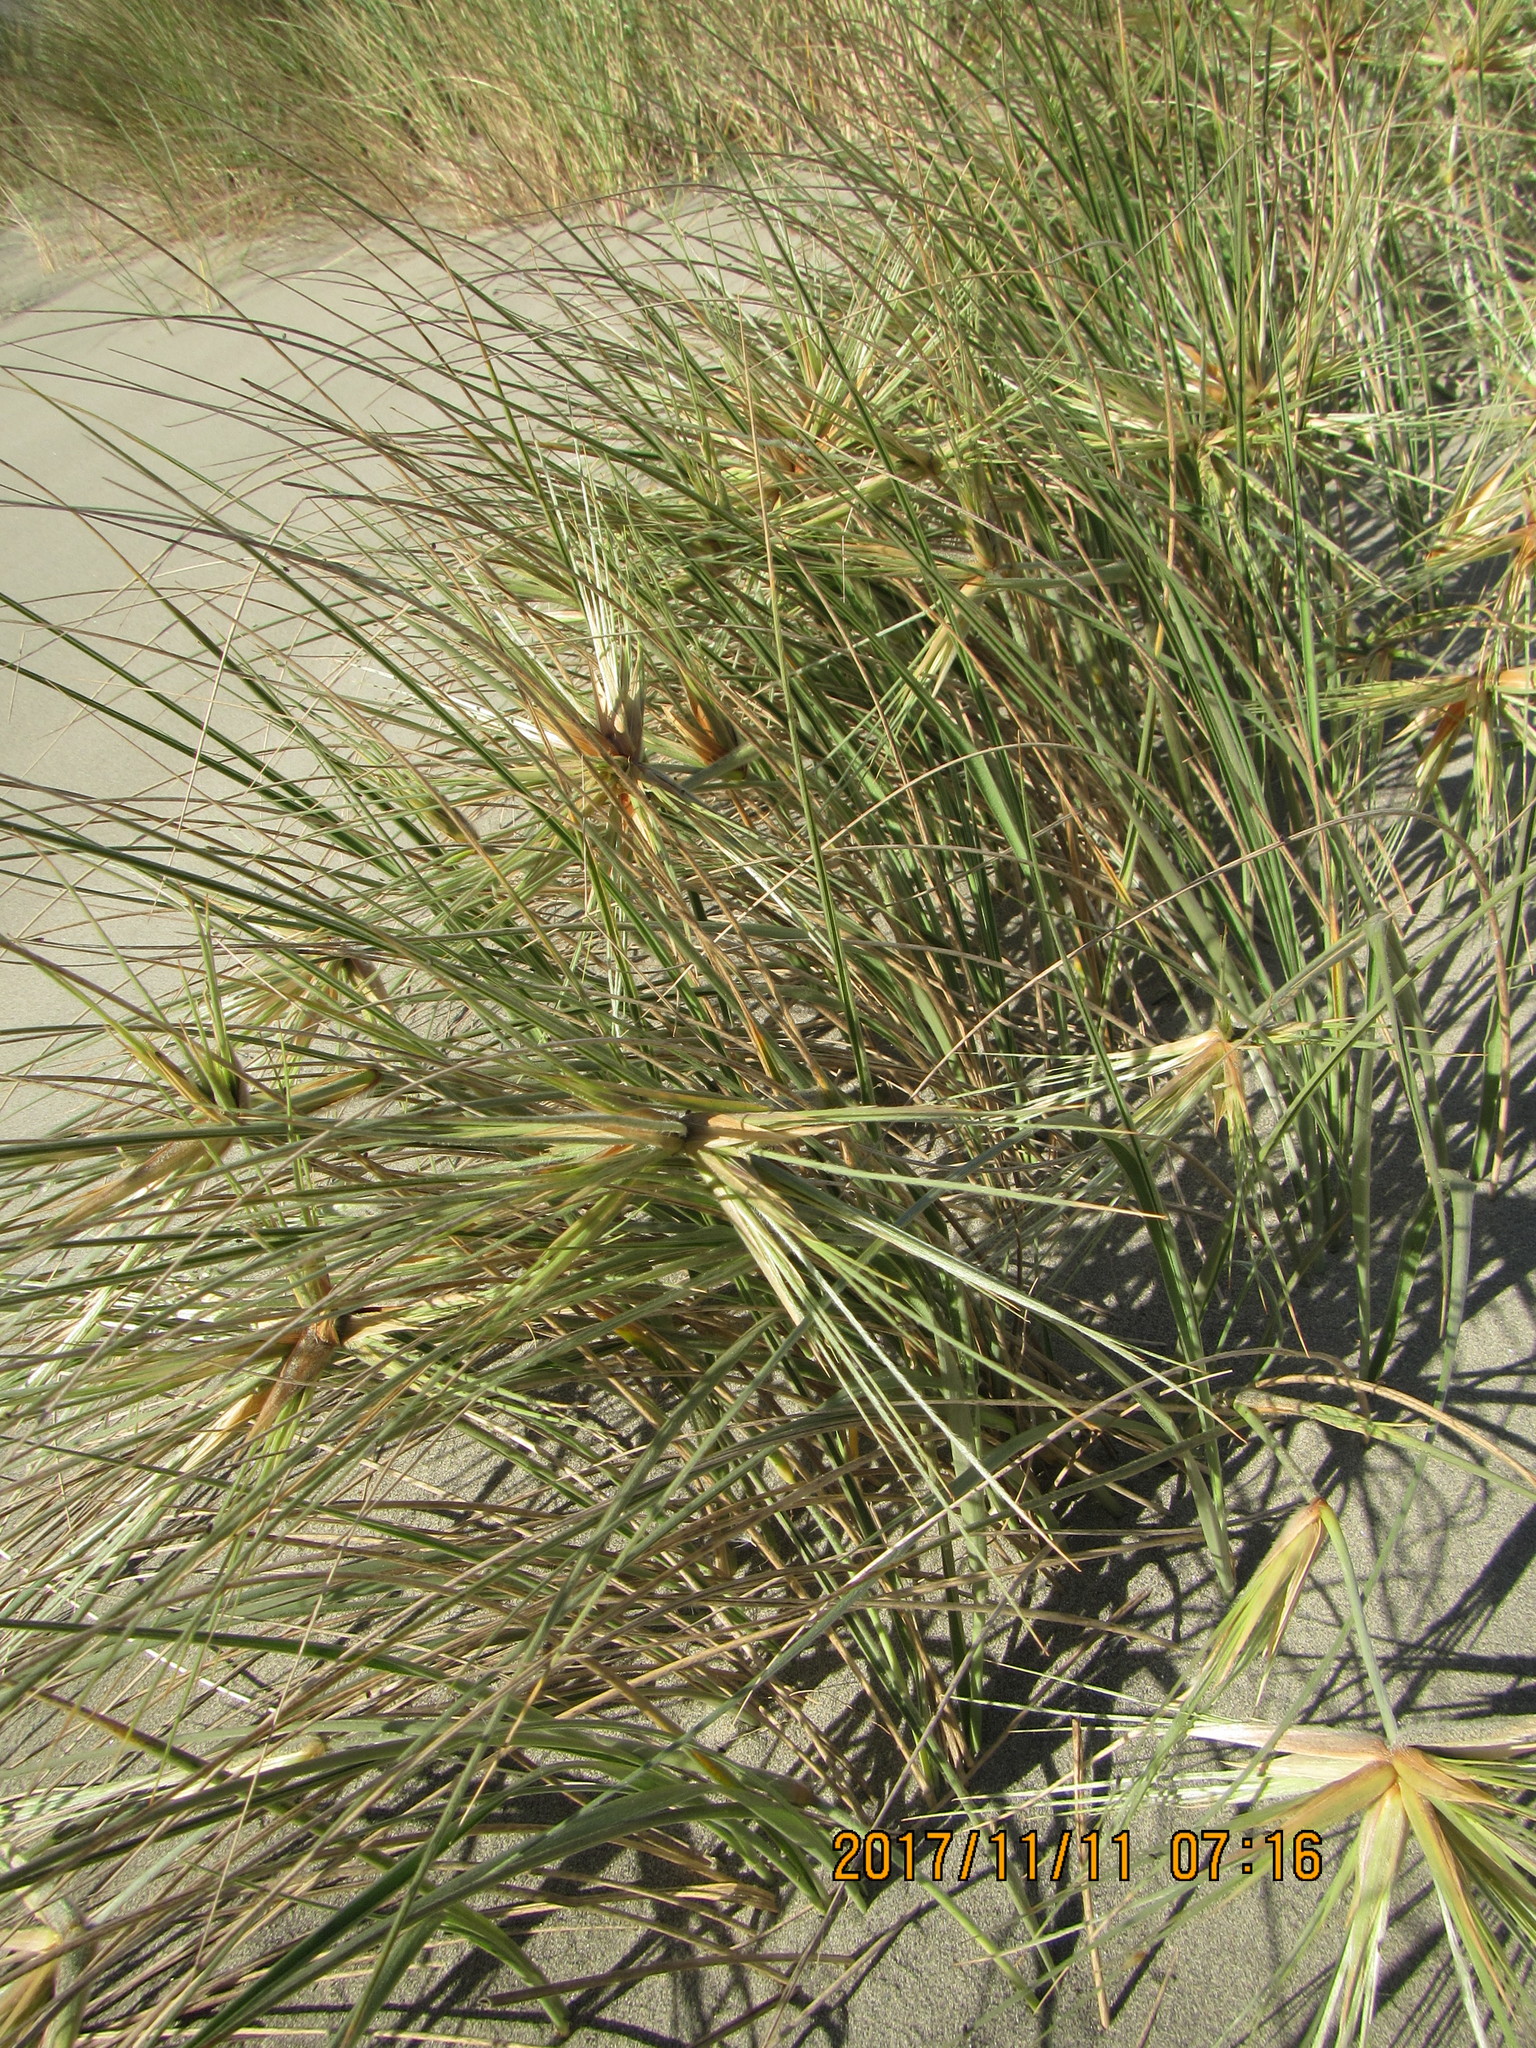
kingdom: Plantae
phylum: Tracheophyta
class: Liliopsida
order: Poales
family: Poaceae
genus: Spinifex
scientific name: Spinifex sericeus
